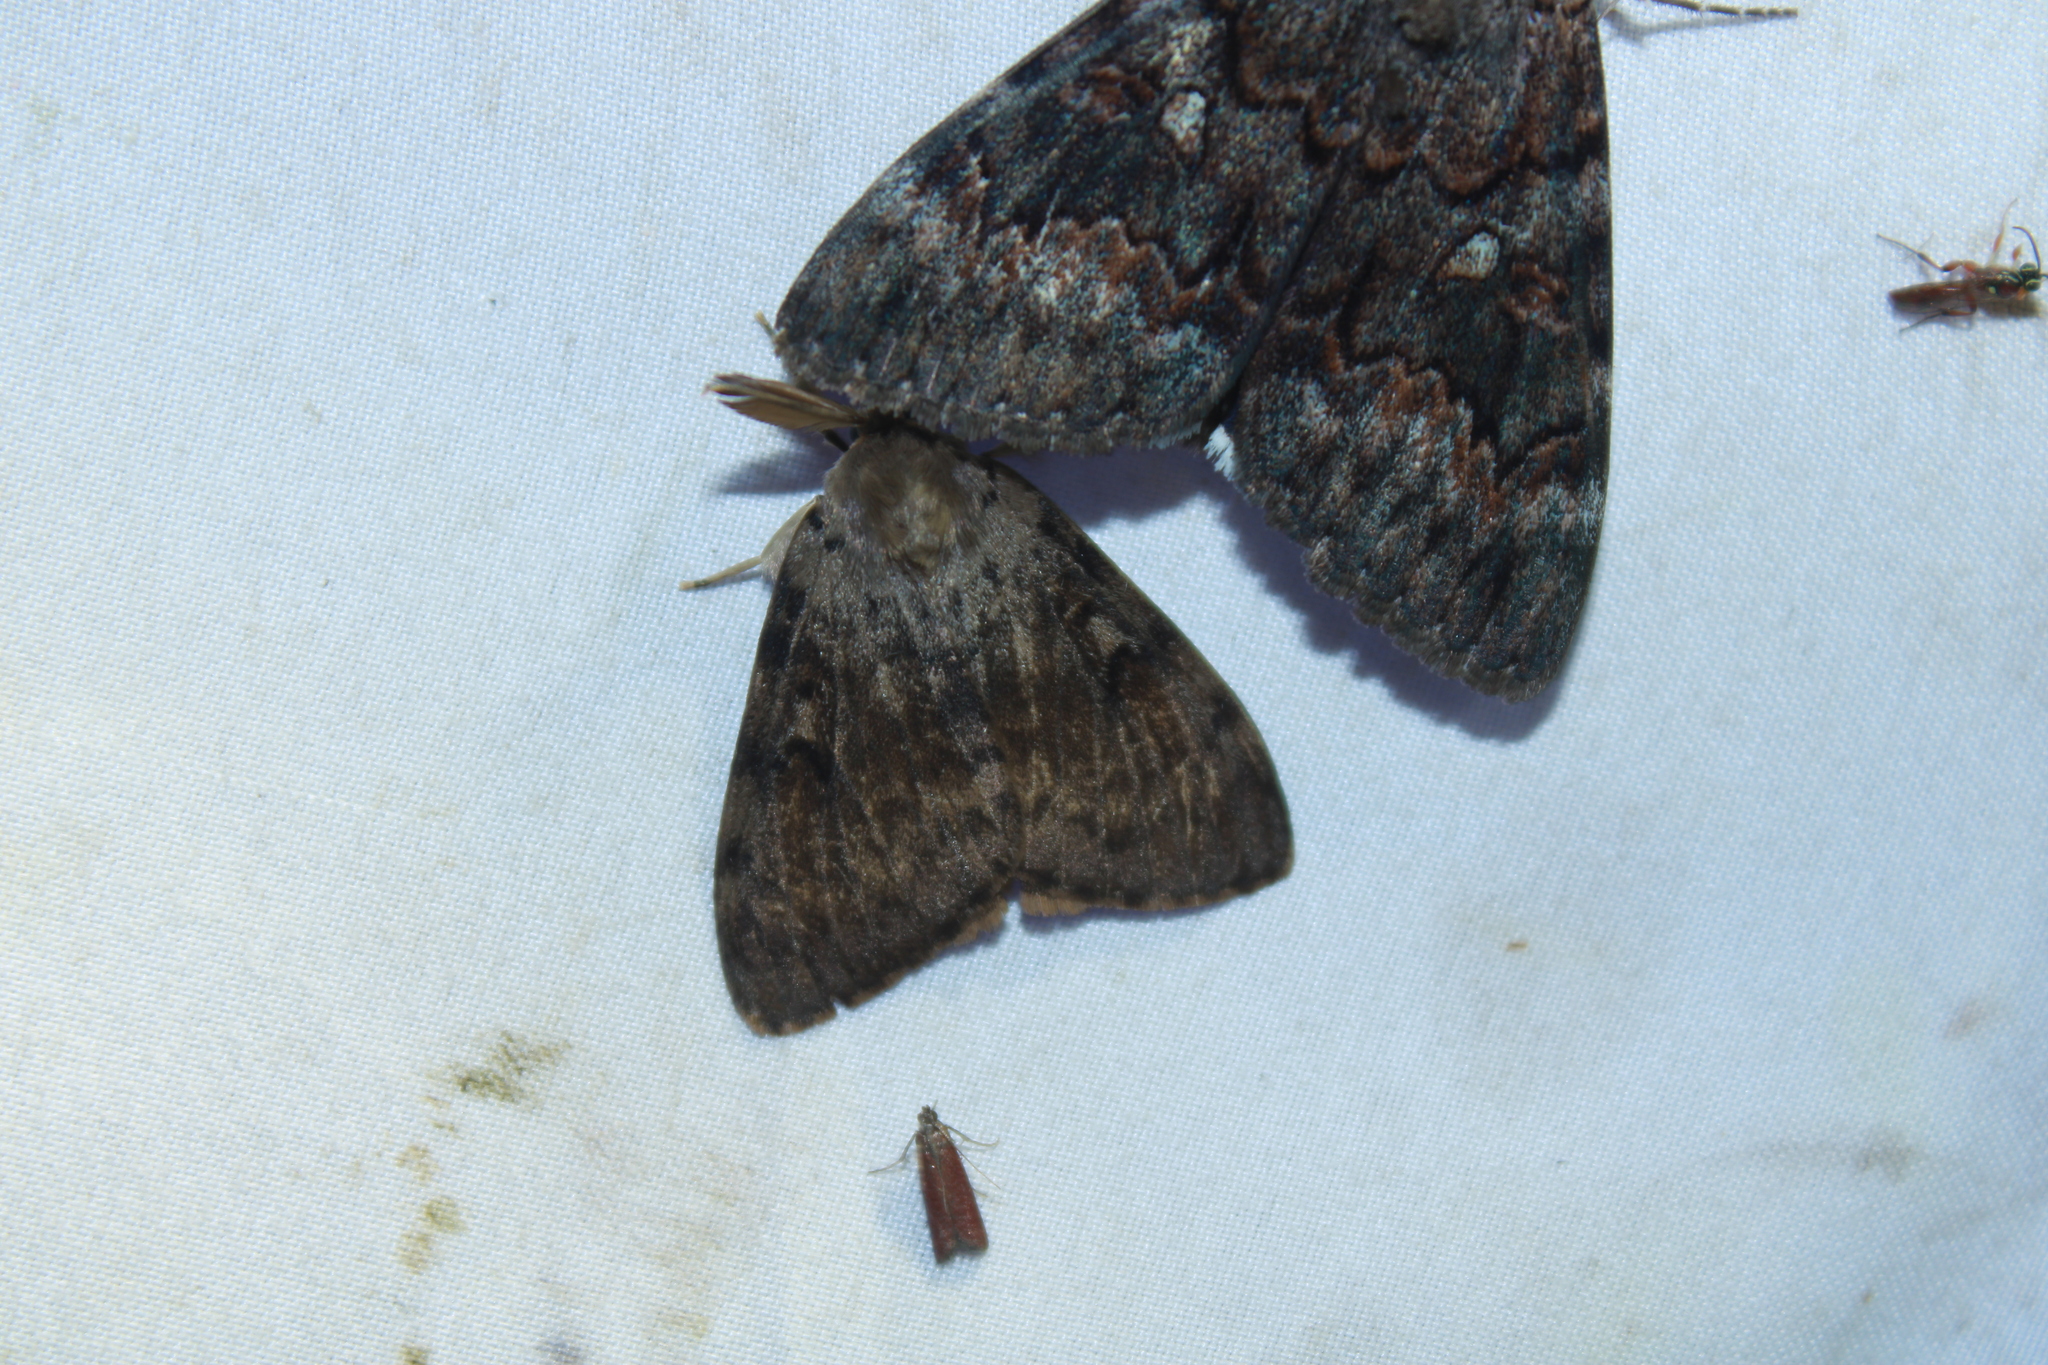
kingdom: Animalia
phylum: Arthropoda
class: Insecta
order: Lepidoptera
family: Erebidae
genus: Lymantria
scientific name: Lymantria dispar
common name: Gypsy moth
